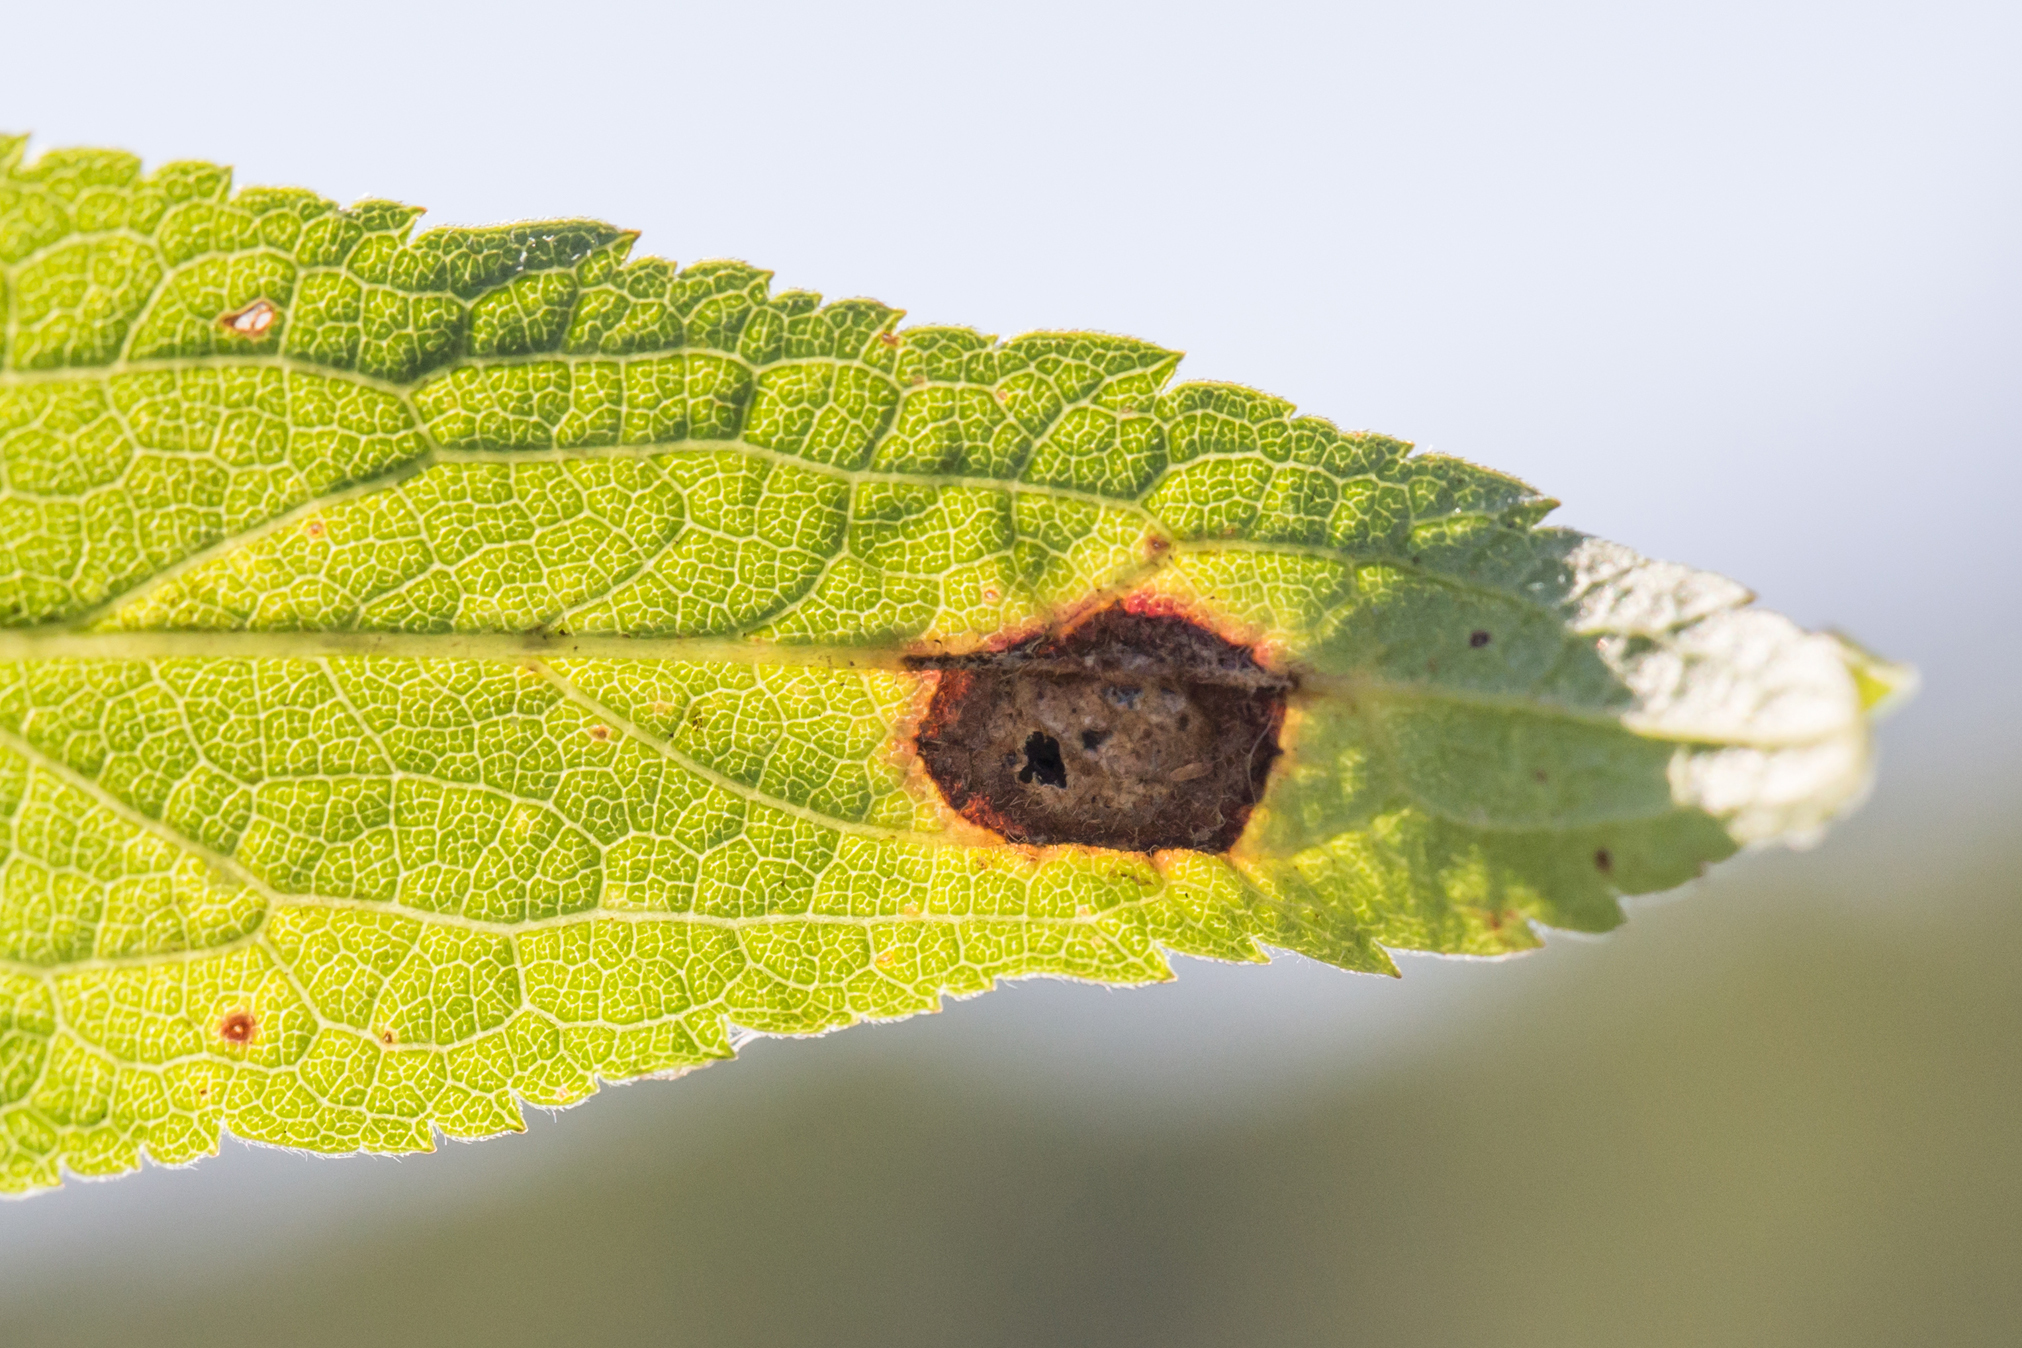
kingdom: Animalia
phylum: Arthropoda
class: Insecta
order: Diptera
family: Cecidomyiidae
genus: Asteromyia
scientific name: Asteromyia carbonifera
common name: Carbonifera goldenrod gall midge
